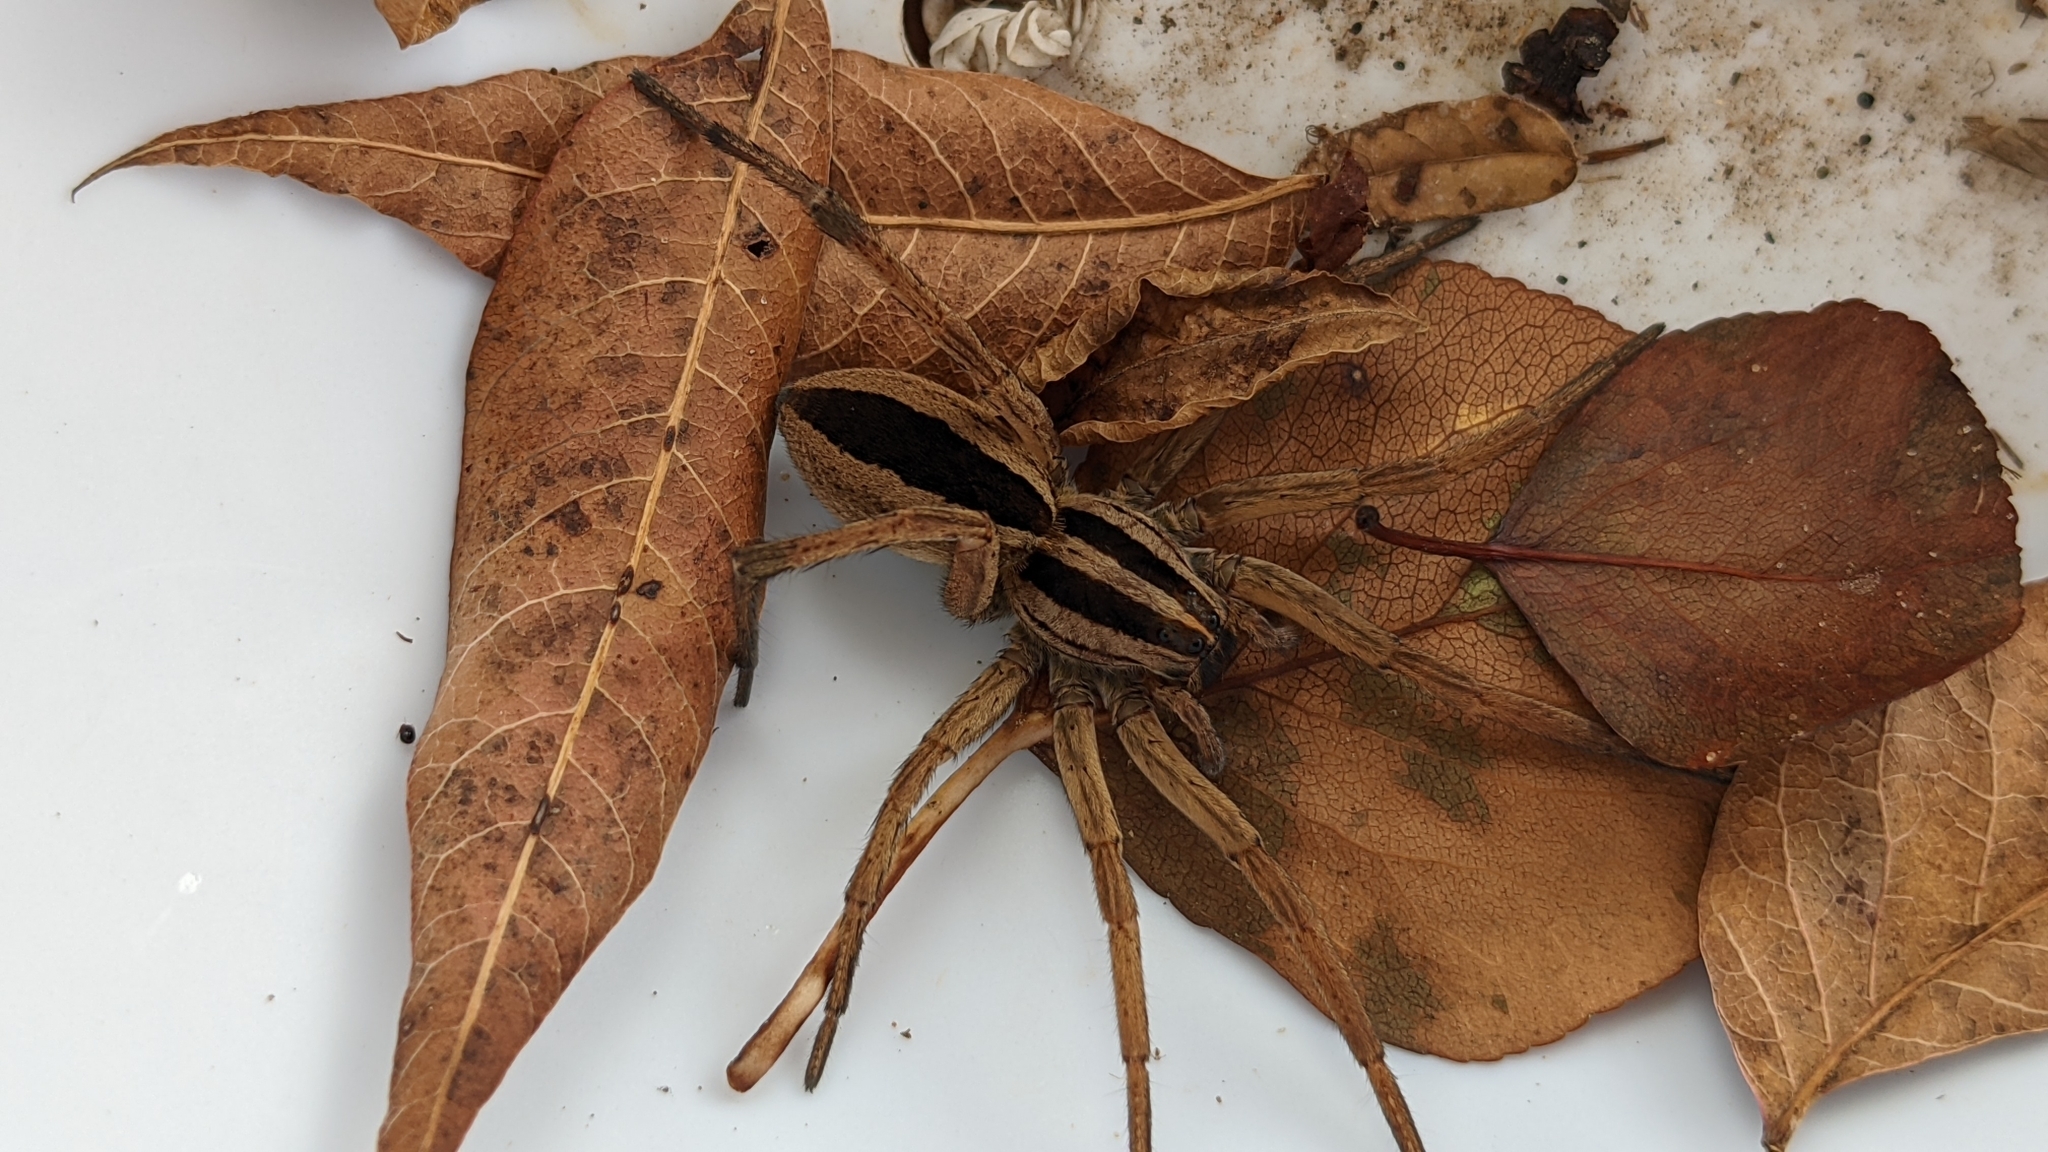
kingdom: Animalia
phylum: Arthropoda
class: Arachnida
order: Araneae
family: Lycosidae
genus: Rabidosa
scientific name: Rabidosa punctulata
